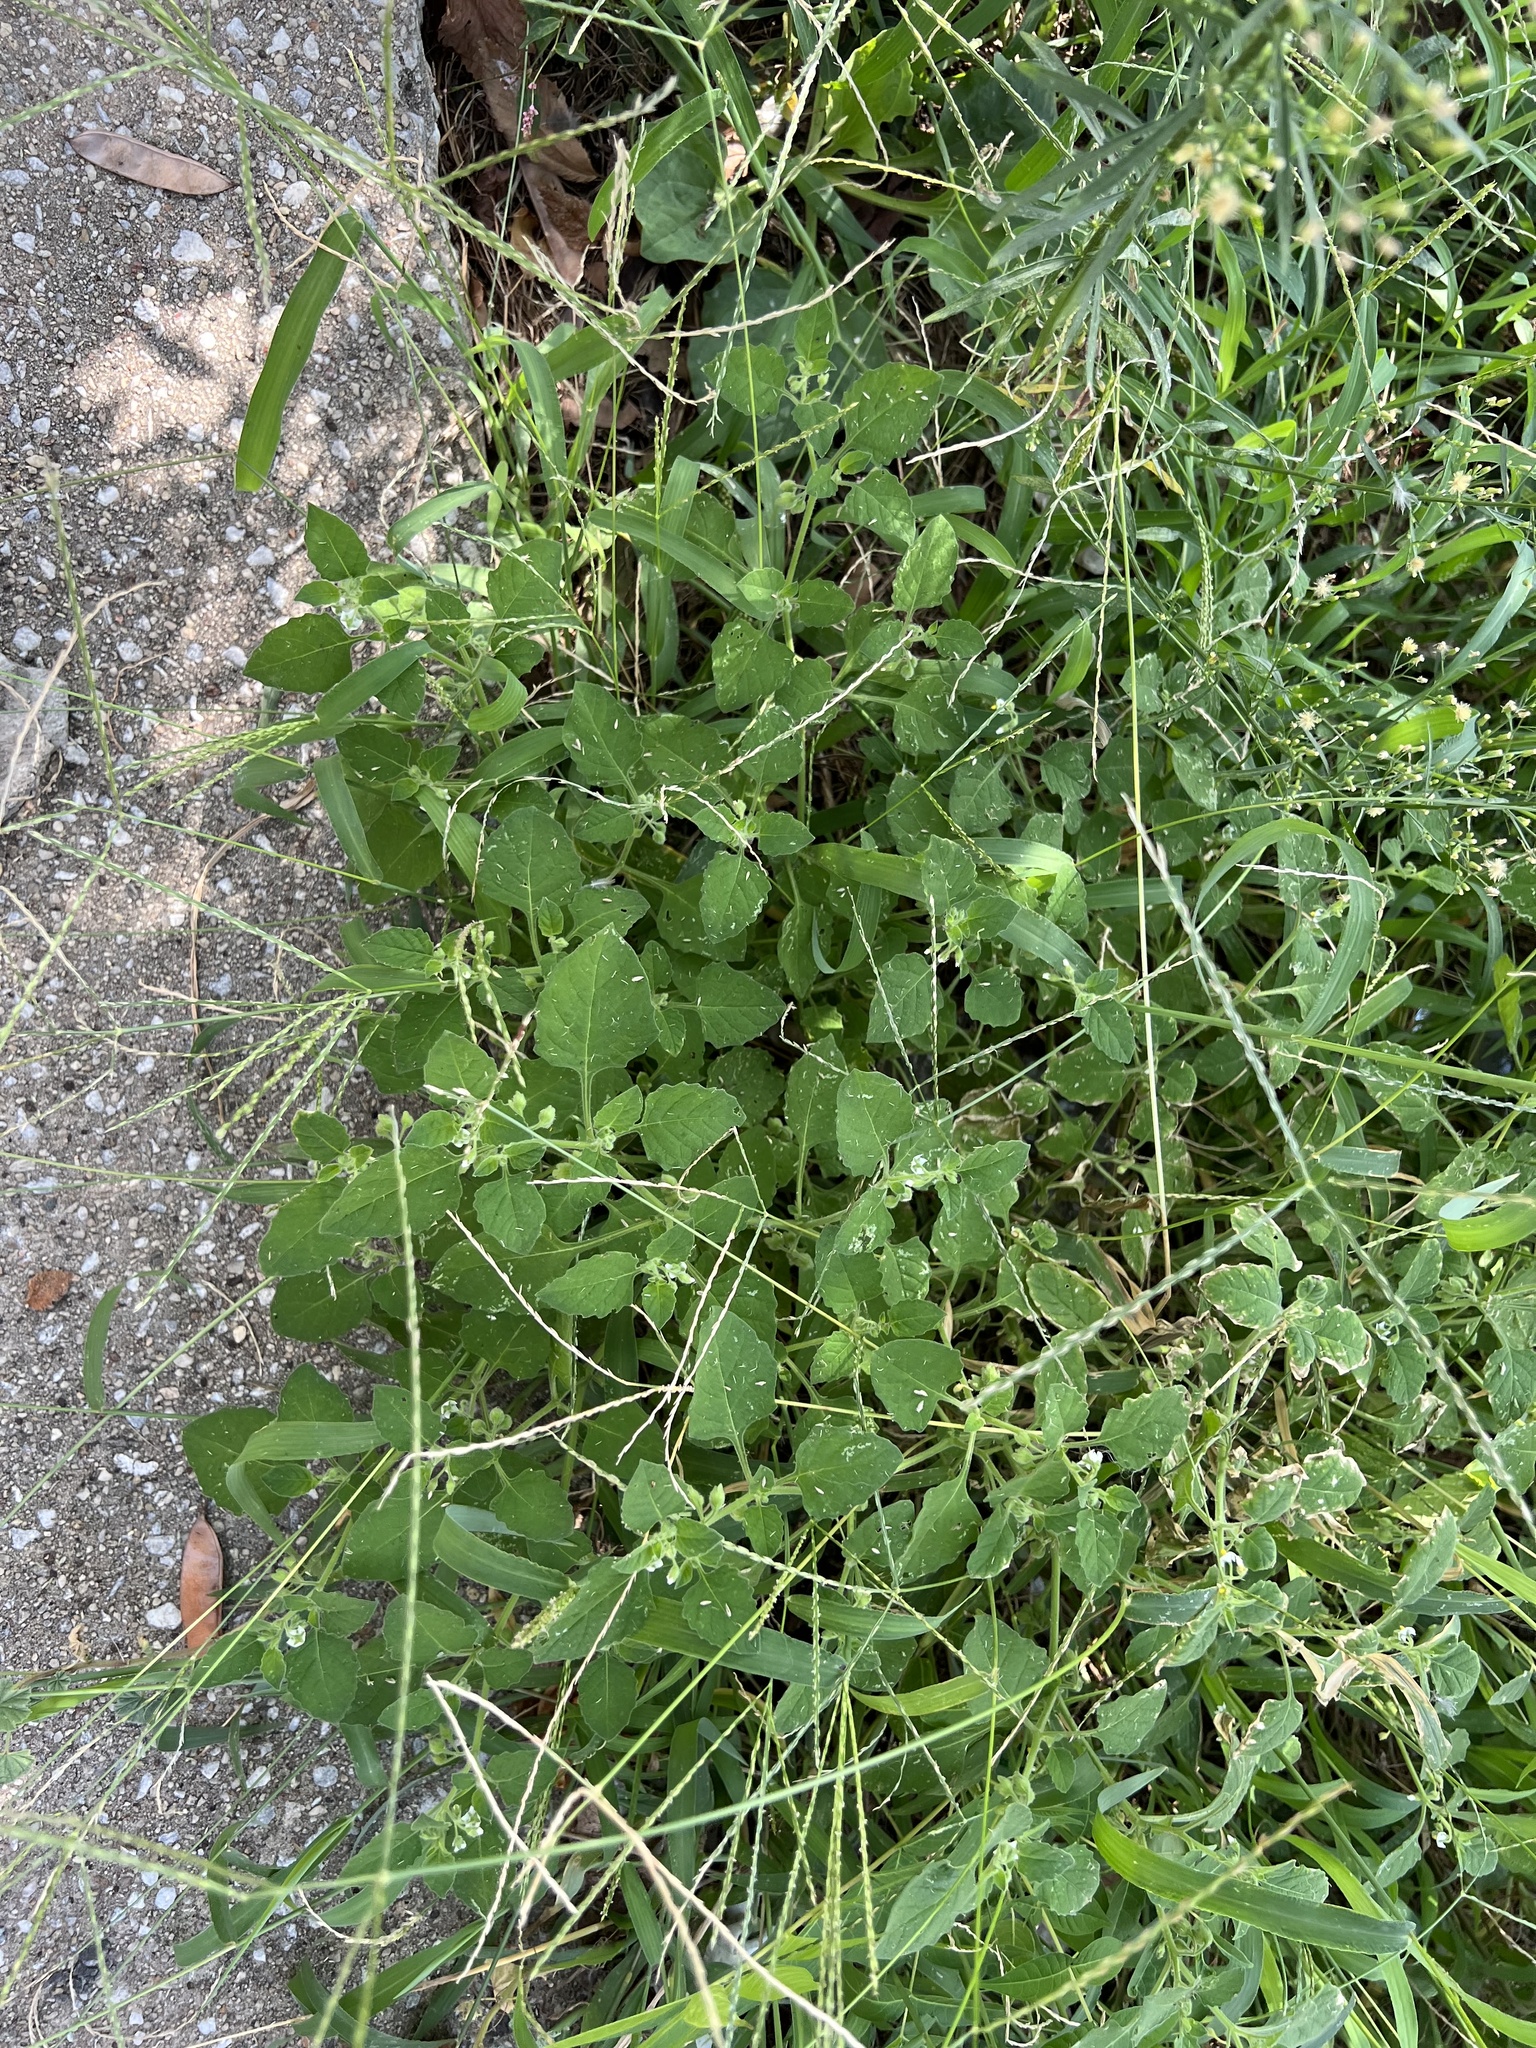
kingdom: Plantae
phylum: Tracheophyta
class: Magnoliopsida
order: Solanales
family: Solanaceae
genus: Solanum
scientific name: Solanum sarrachoides
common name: Leafy-fruited nightshade
